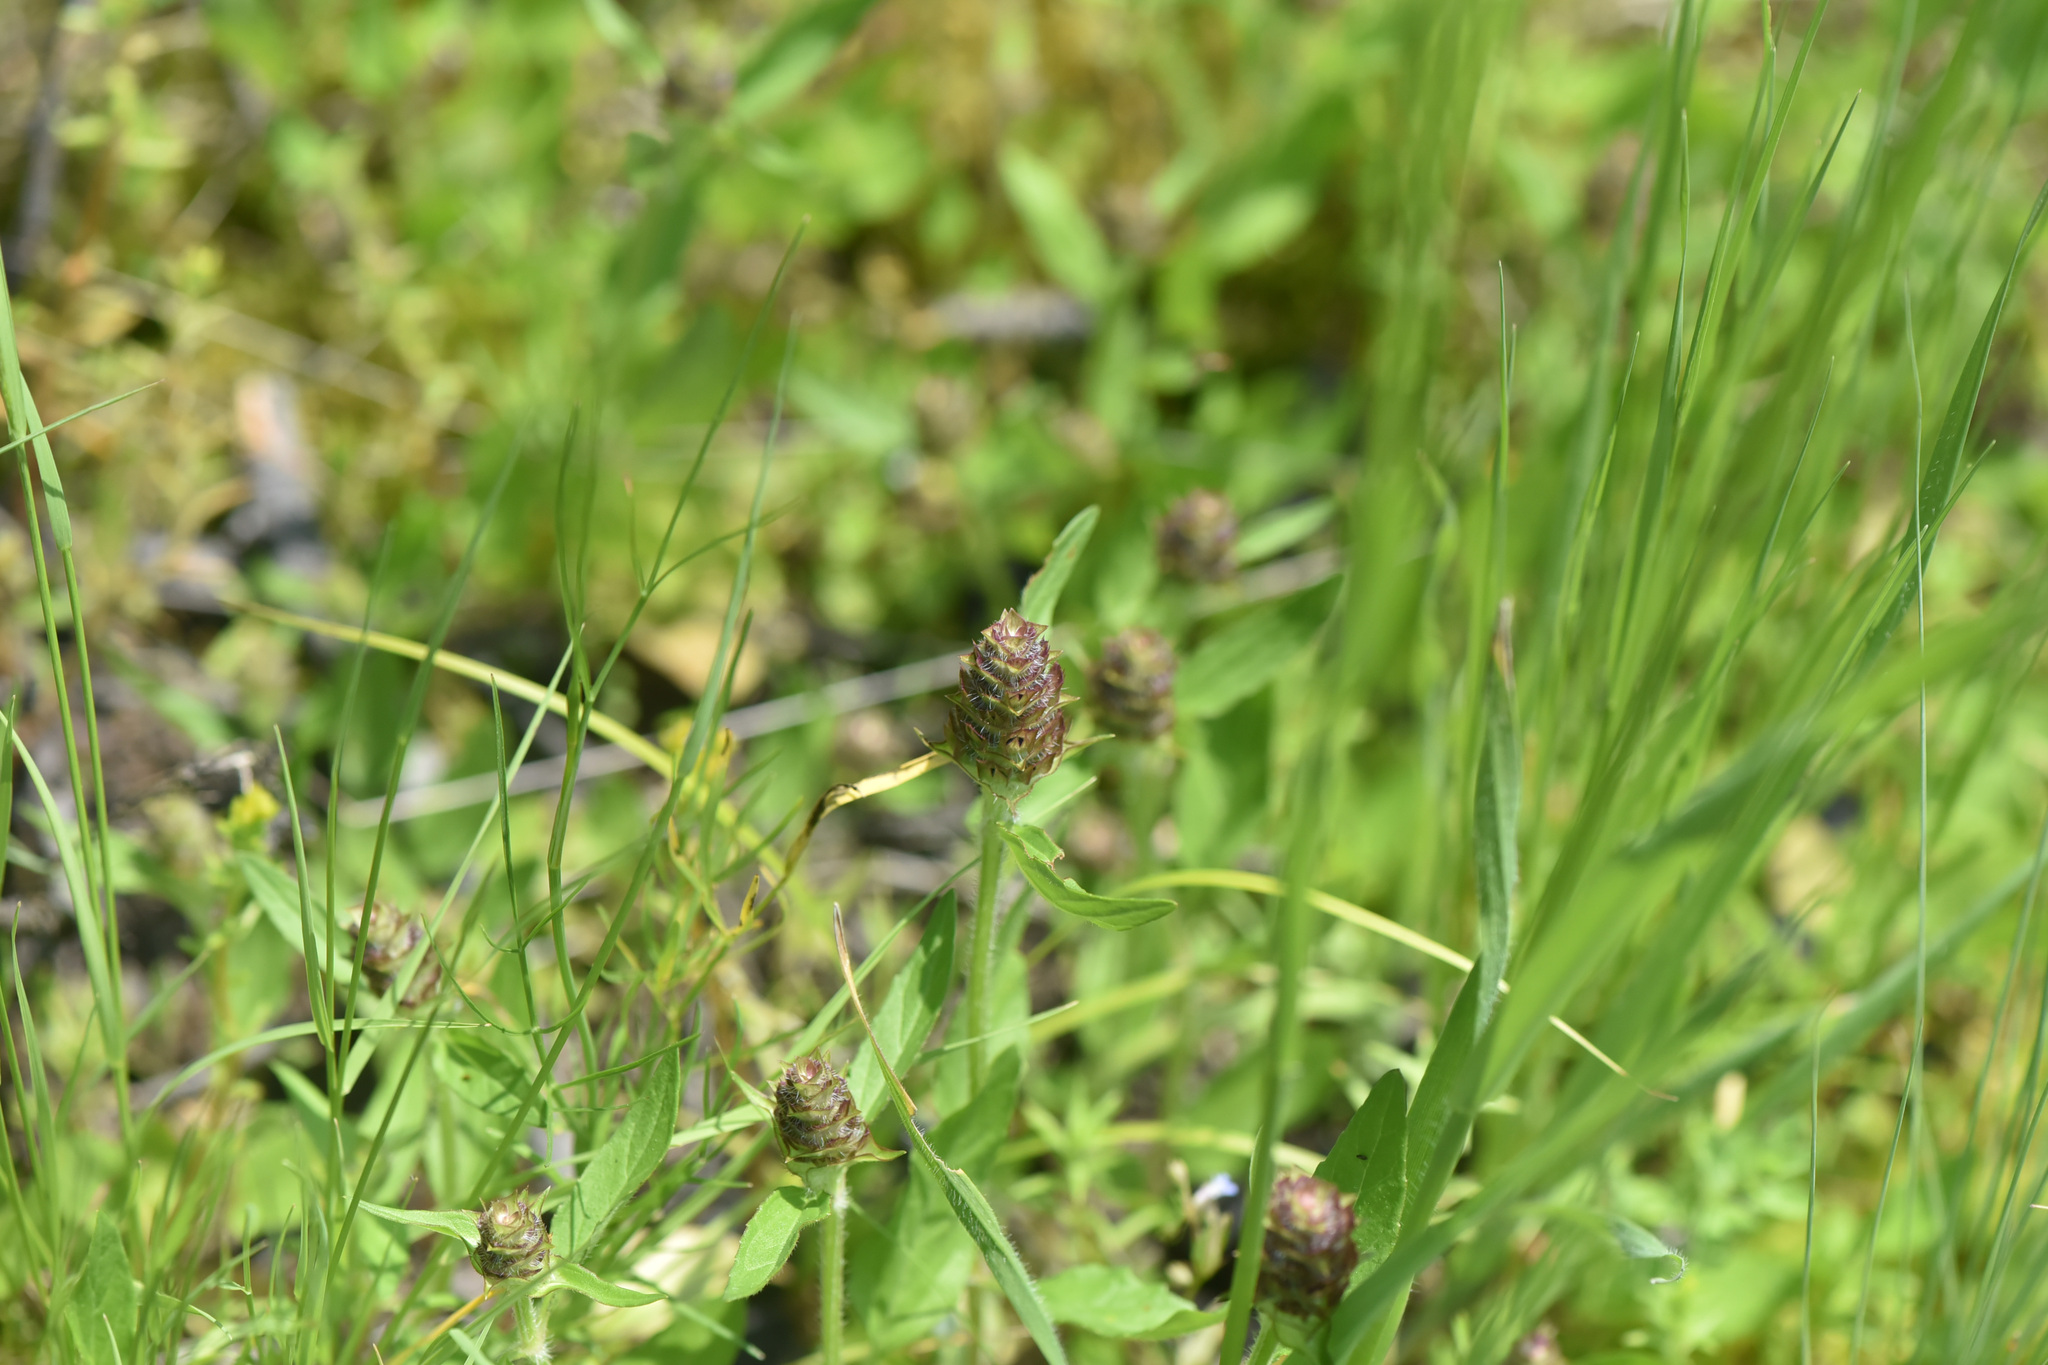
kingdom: Plantae
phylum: Tracheophyta
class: Magnoliopsida
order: Lamiales
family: Lamiaceae
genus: Prunella
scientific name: Prunella vulgaris
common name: Heal-all
